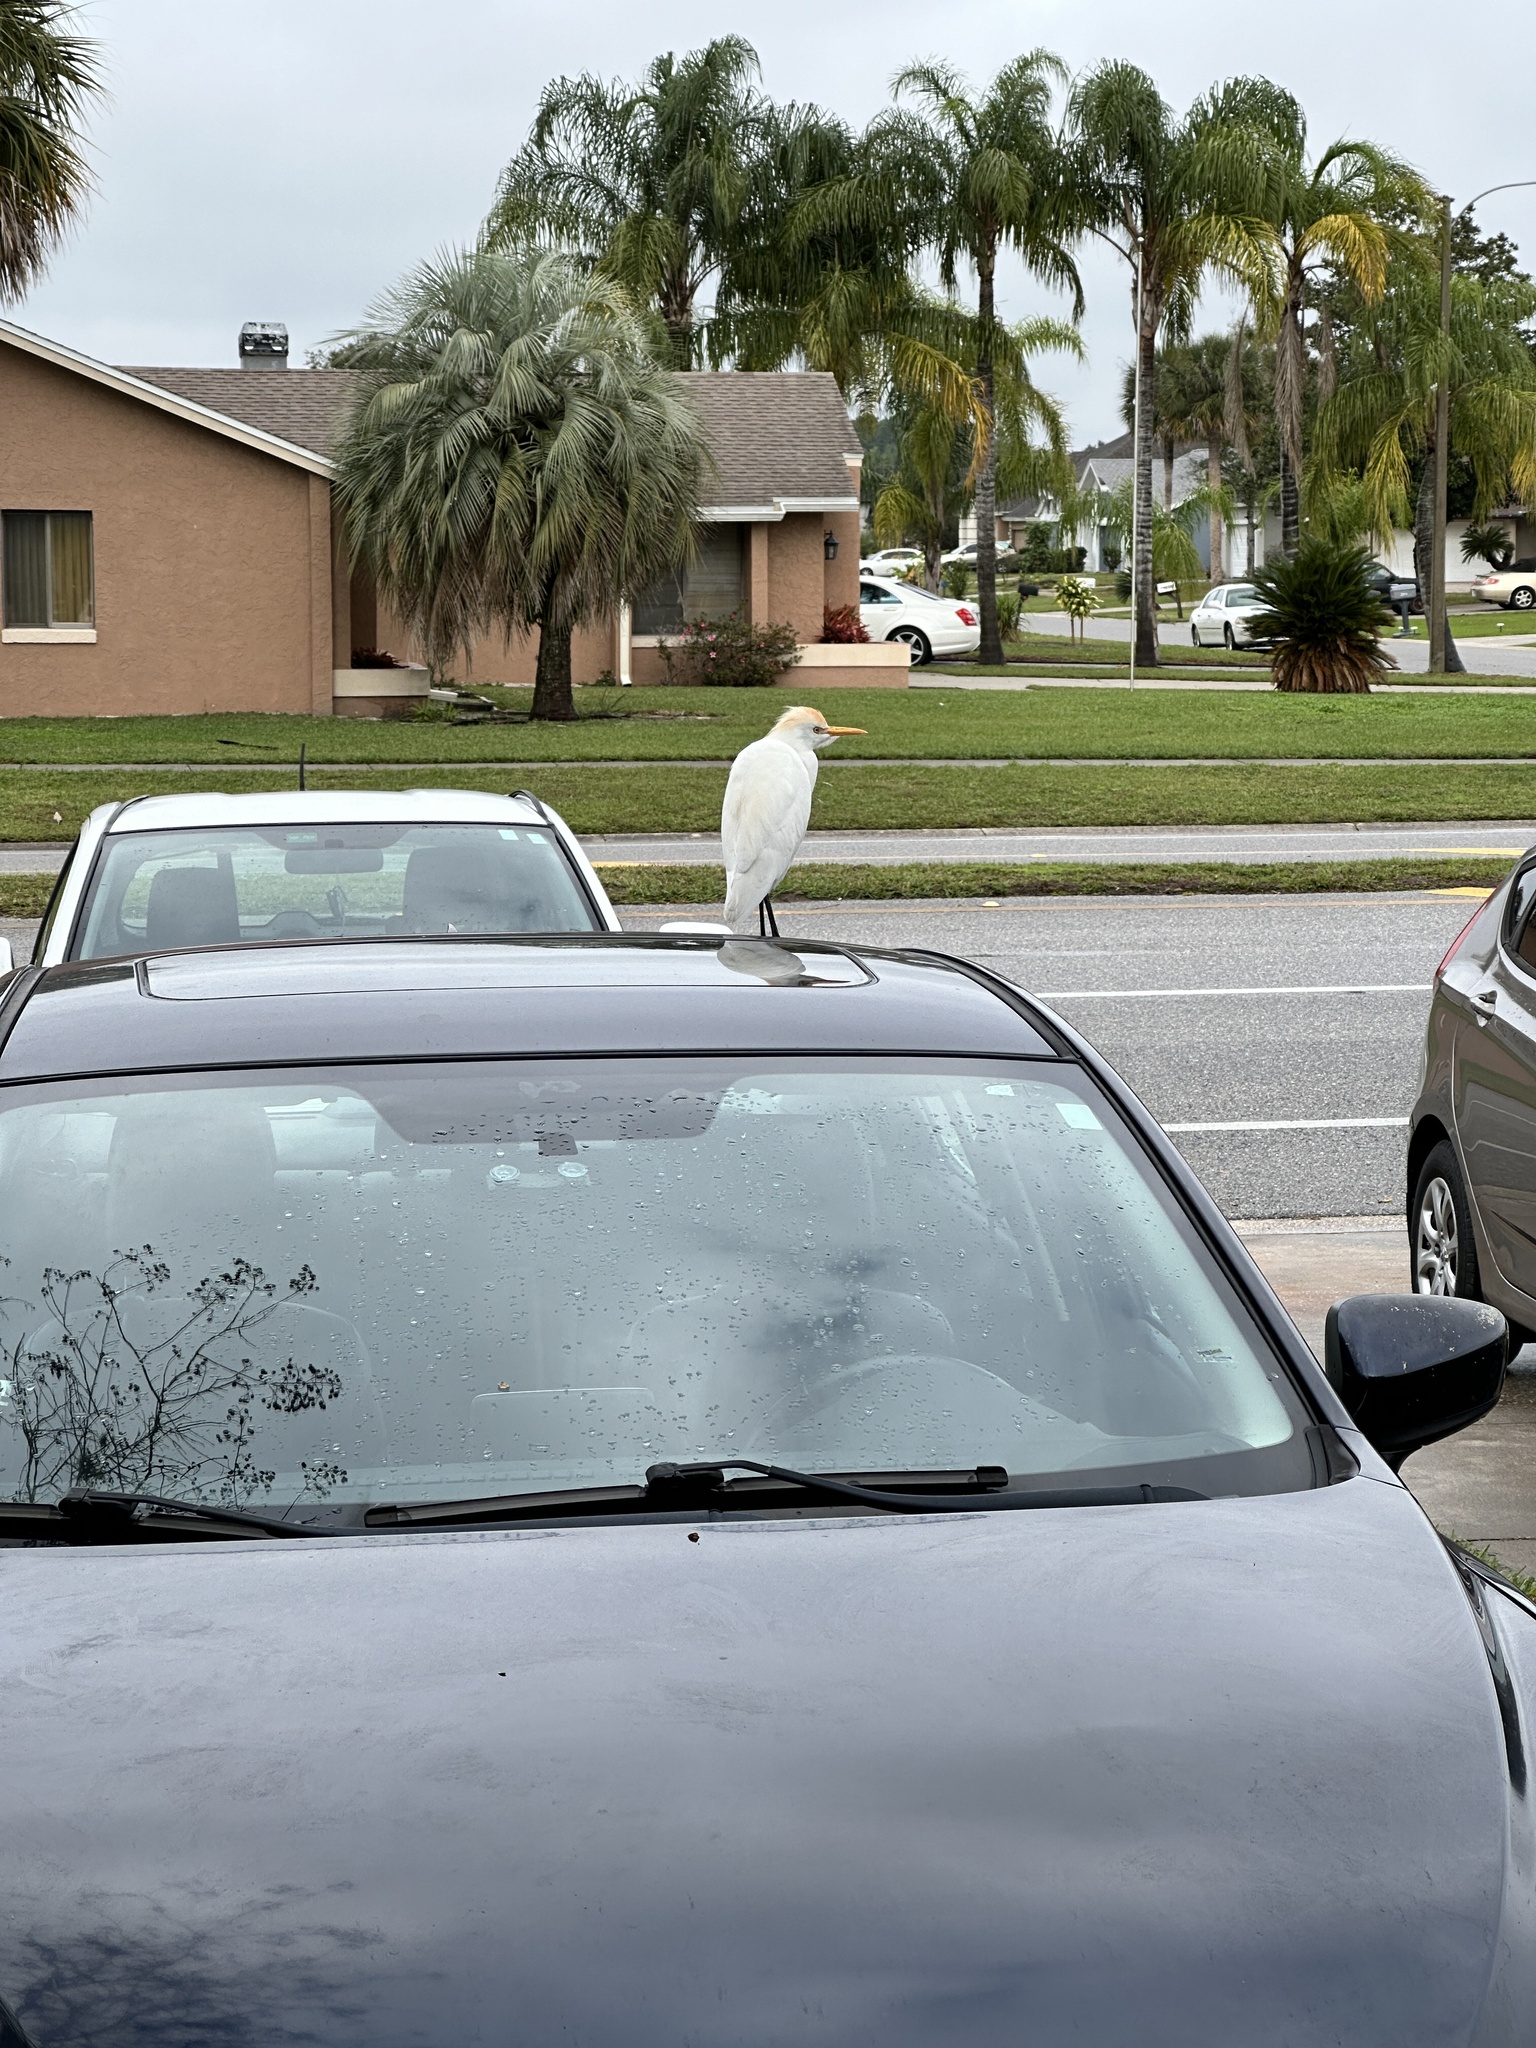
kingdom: Animalia
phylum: Chordata
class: Aves
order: Pelecaniformes
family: Ardeidae
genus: Bubulcus
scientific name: Bubulcus ibis
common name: Cattle egret
